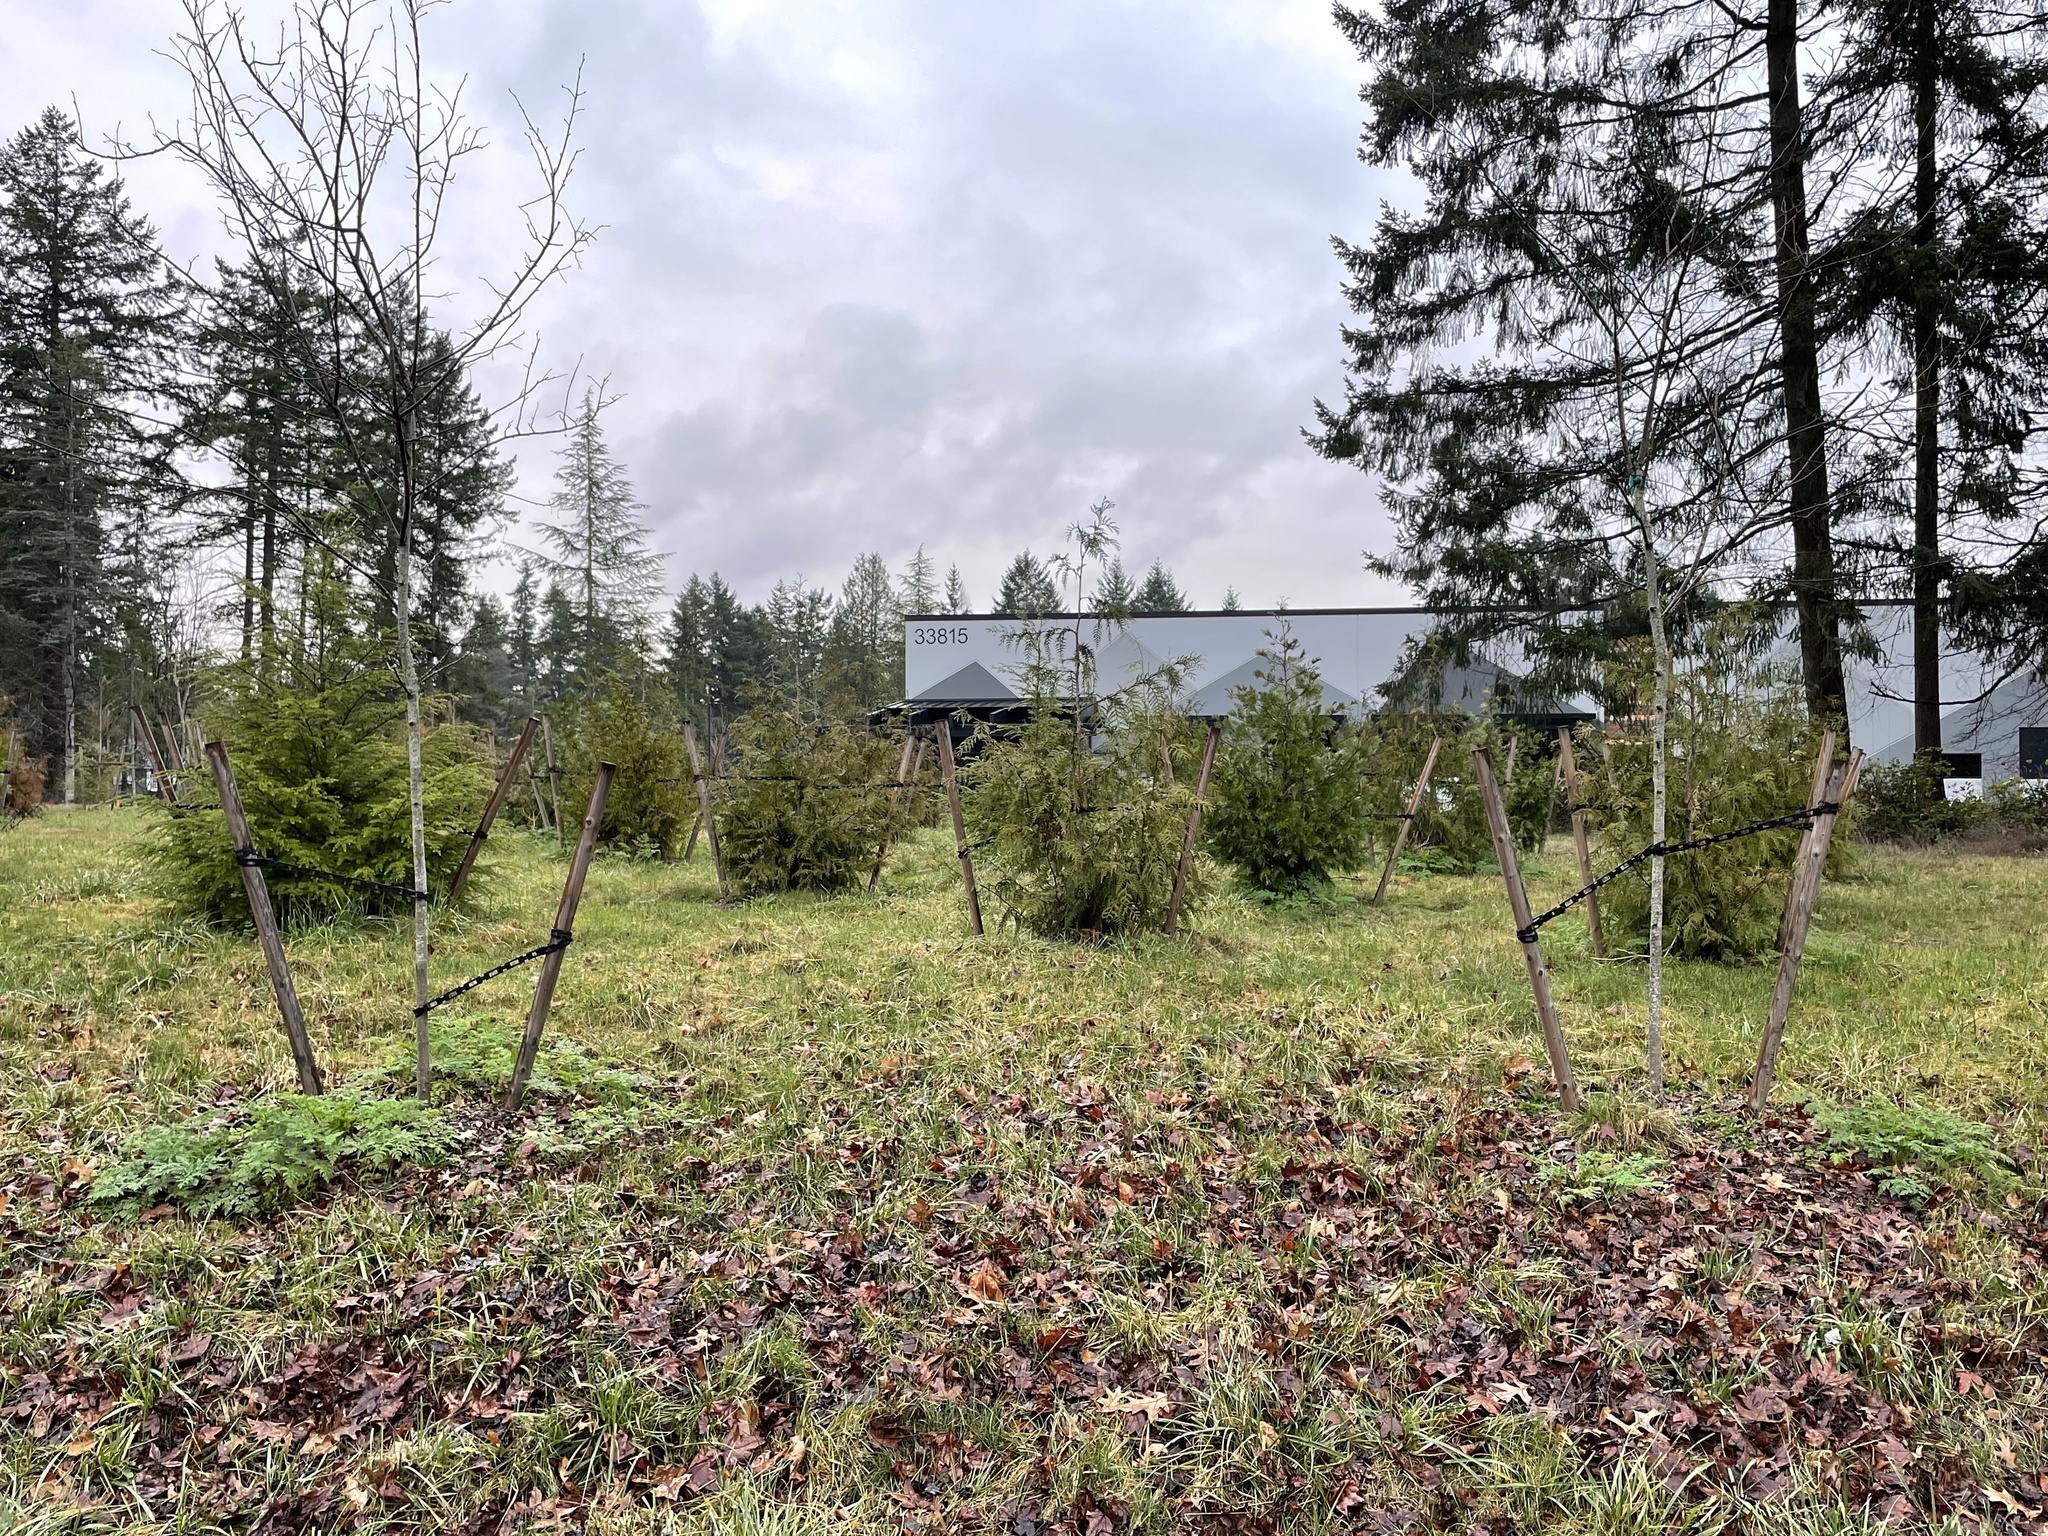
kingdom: Plantae
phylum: Tracheophyta
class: Magnoliopsida
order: Apiales
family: Apiaceae
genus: Conium
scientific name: Conium maculatum
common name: Hemlock
